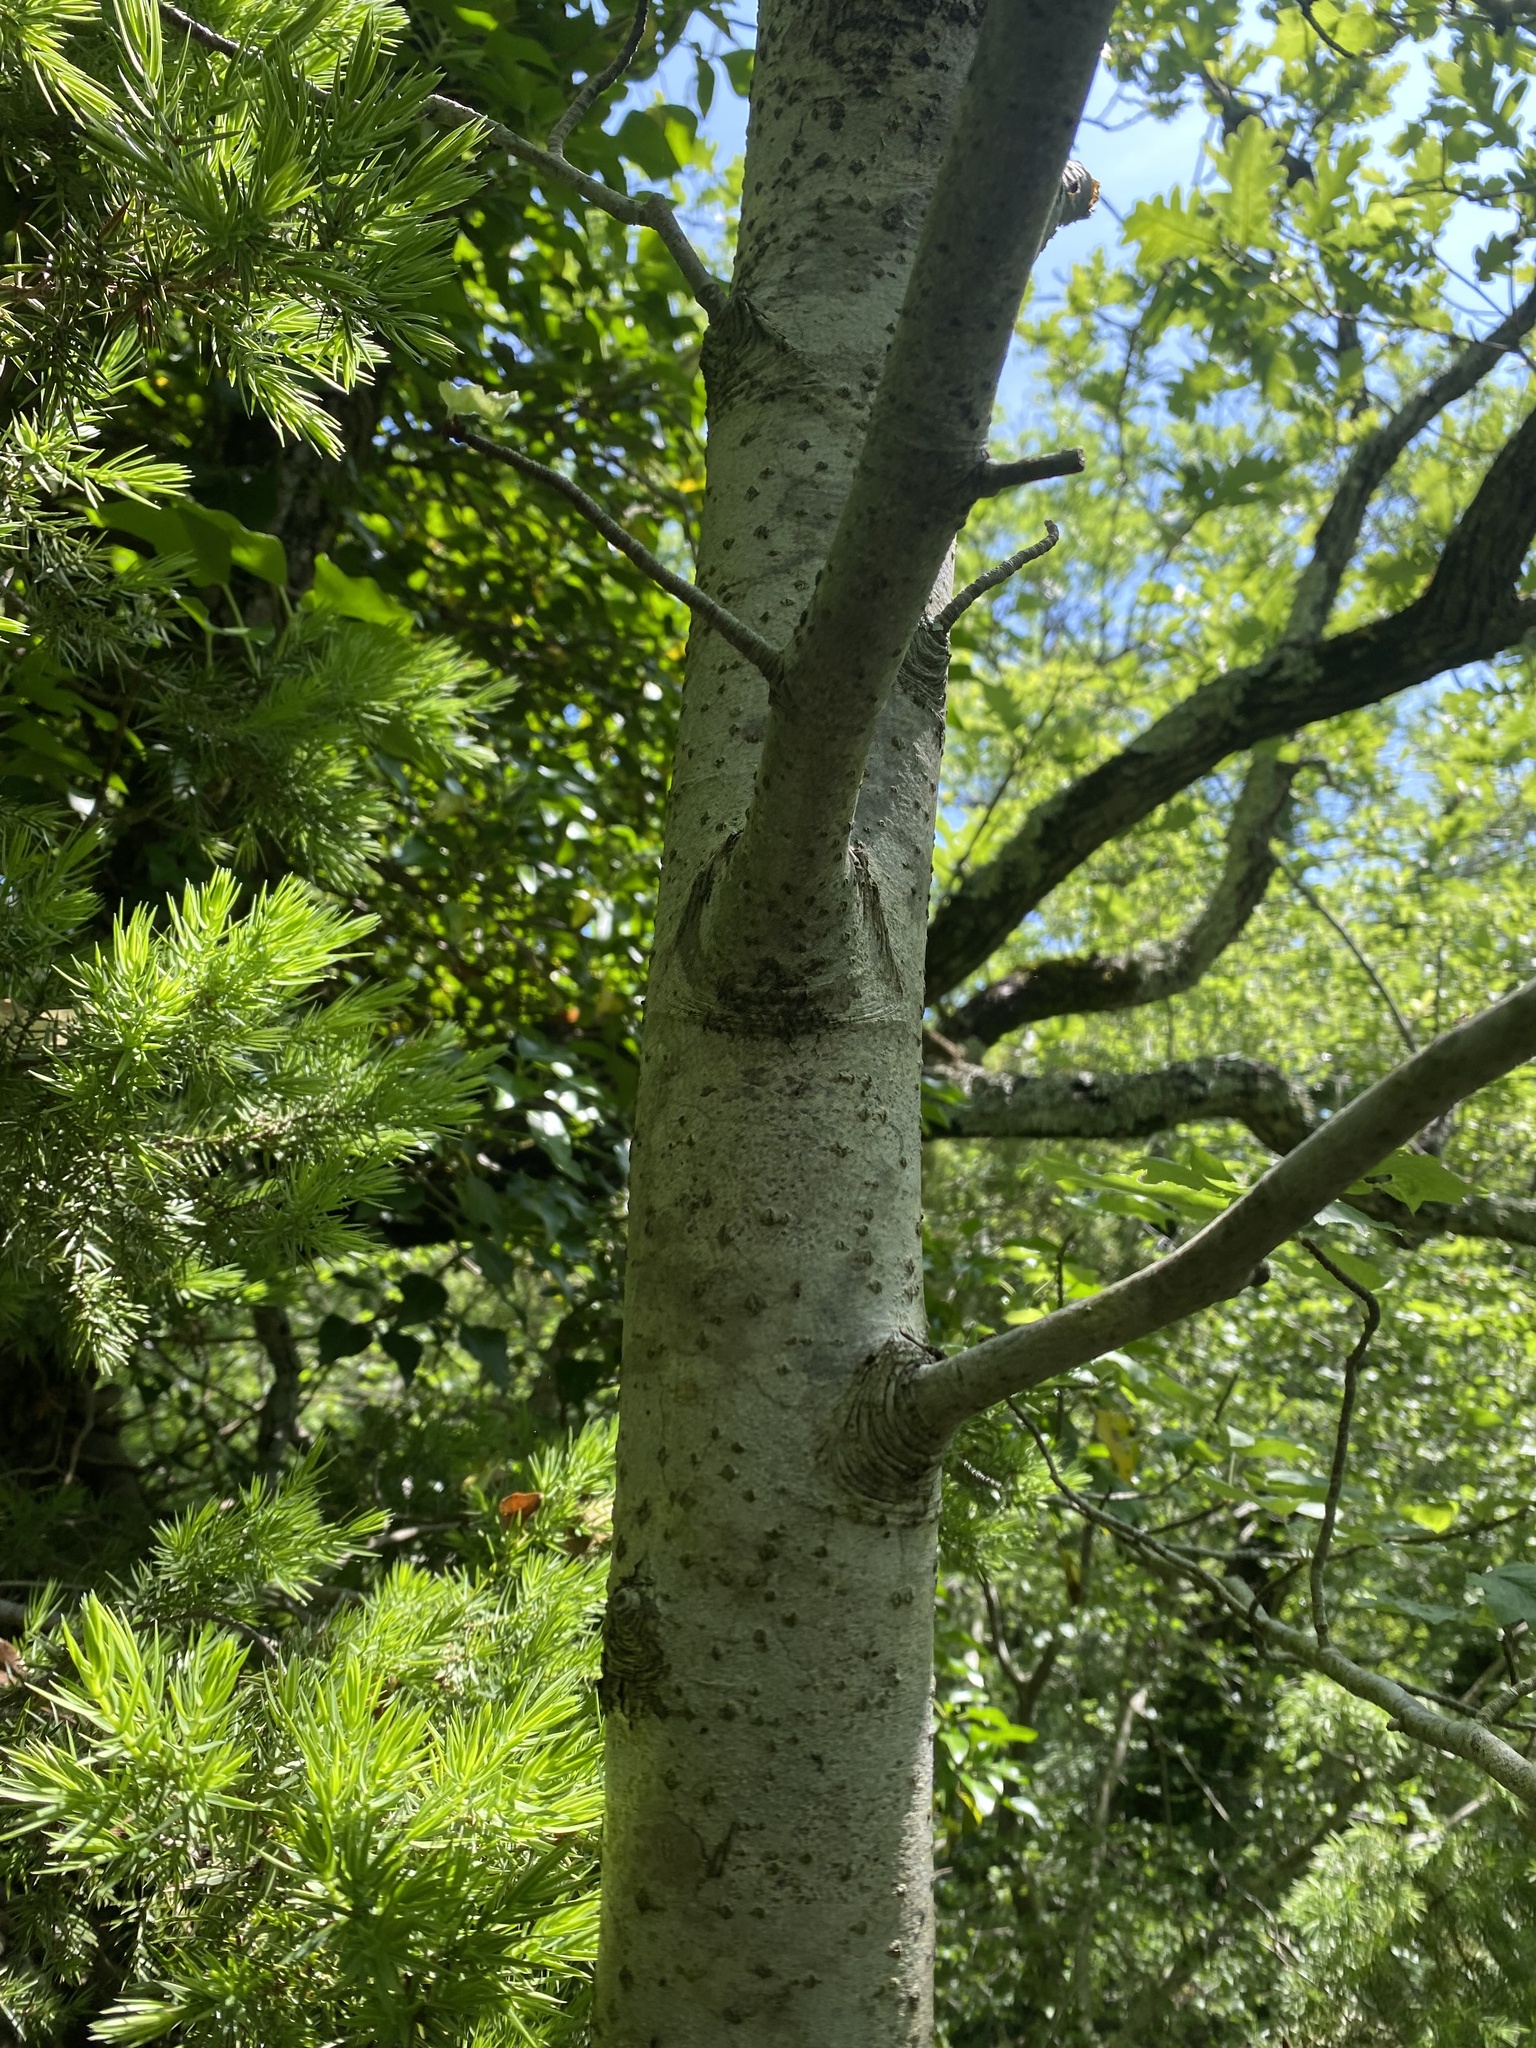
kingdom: Plantae
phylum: Tracheophyta
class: Magnoliopsida
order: Rosales
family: Rosaceae
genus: Torminalis
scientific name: Torminalis glaberrima
